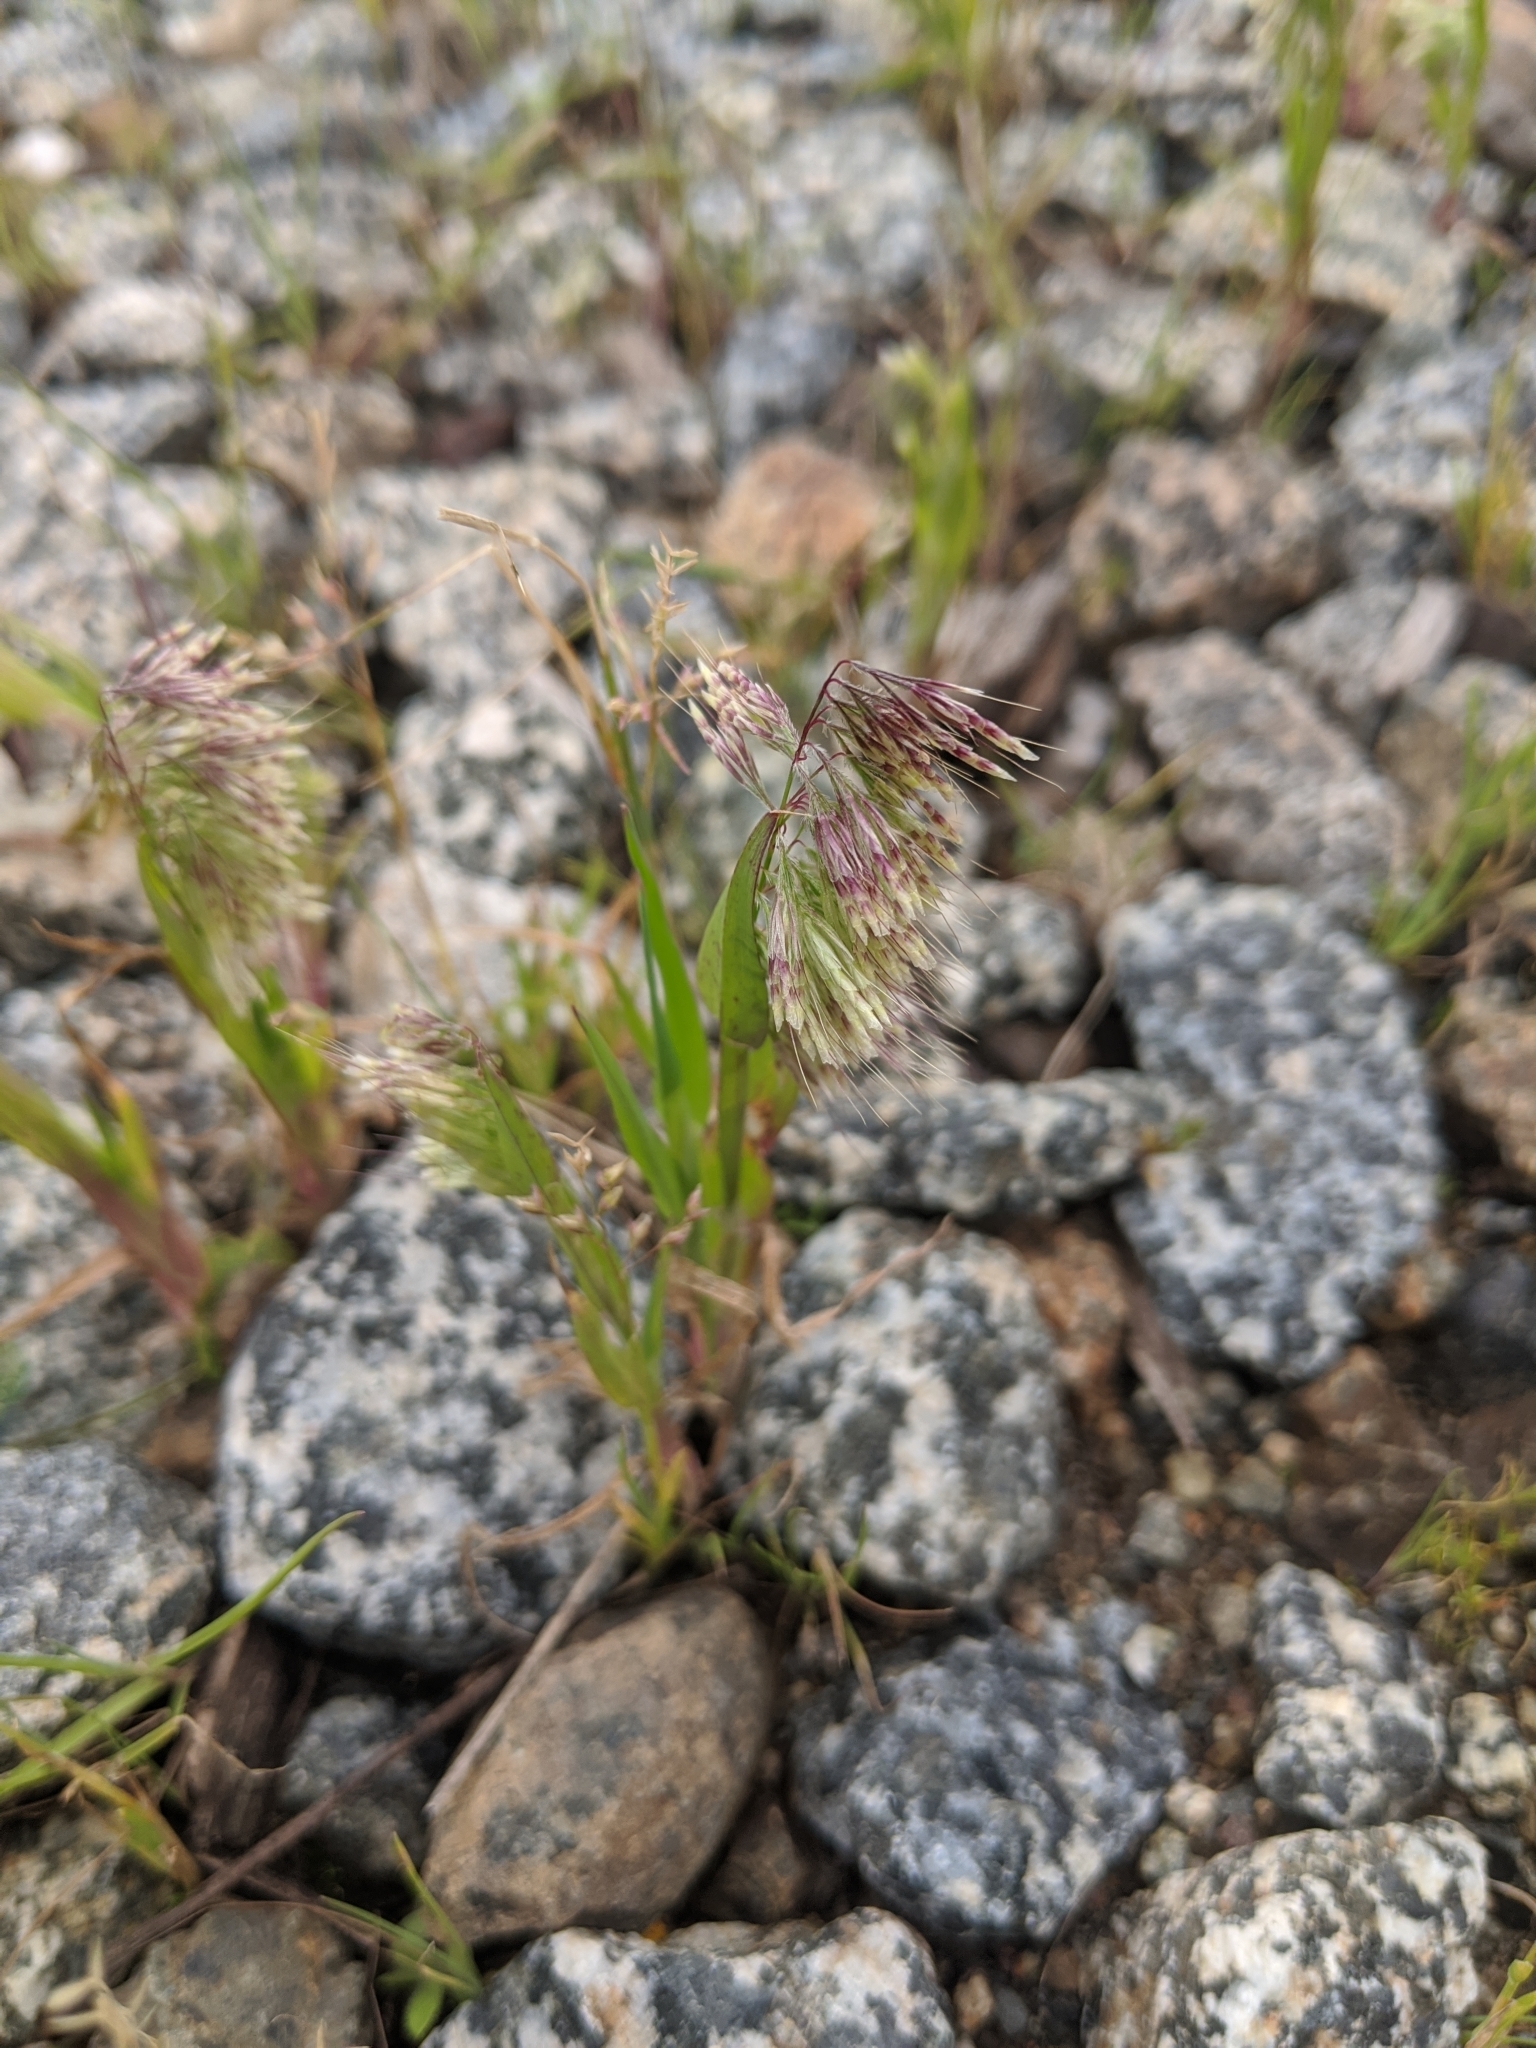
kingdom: Plantae
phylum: Tracheophyta
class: Liliopsida
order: Poales
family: Poaceae
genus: Lamarckia
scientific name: Lamarckia aurea
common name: Golden dog's-tail
